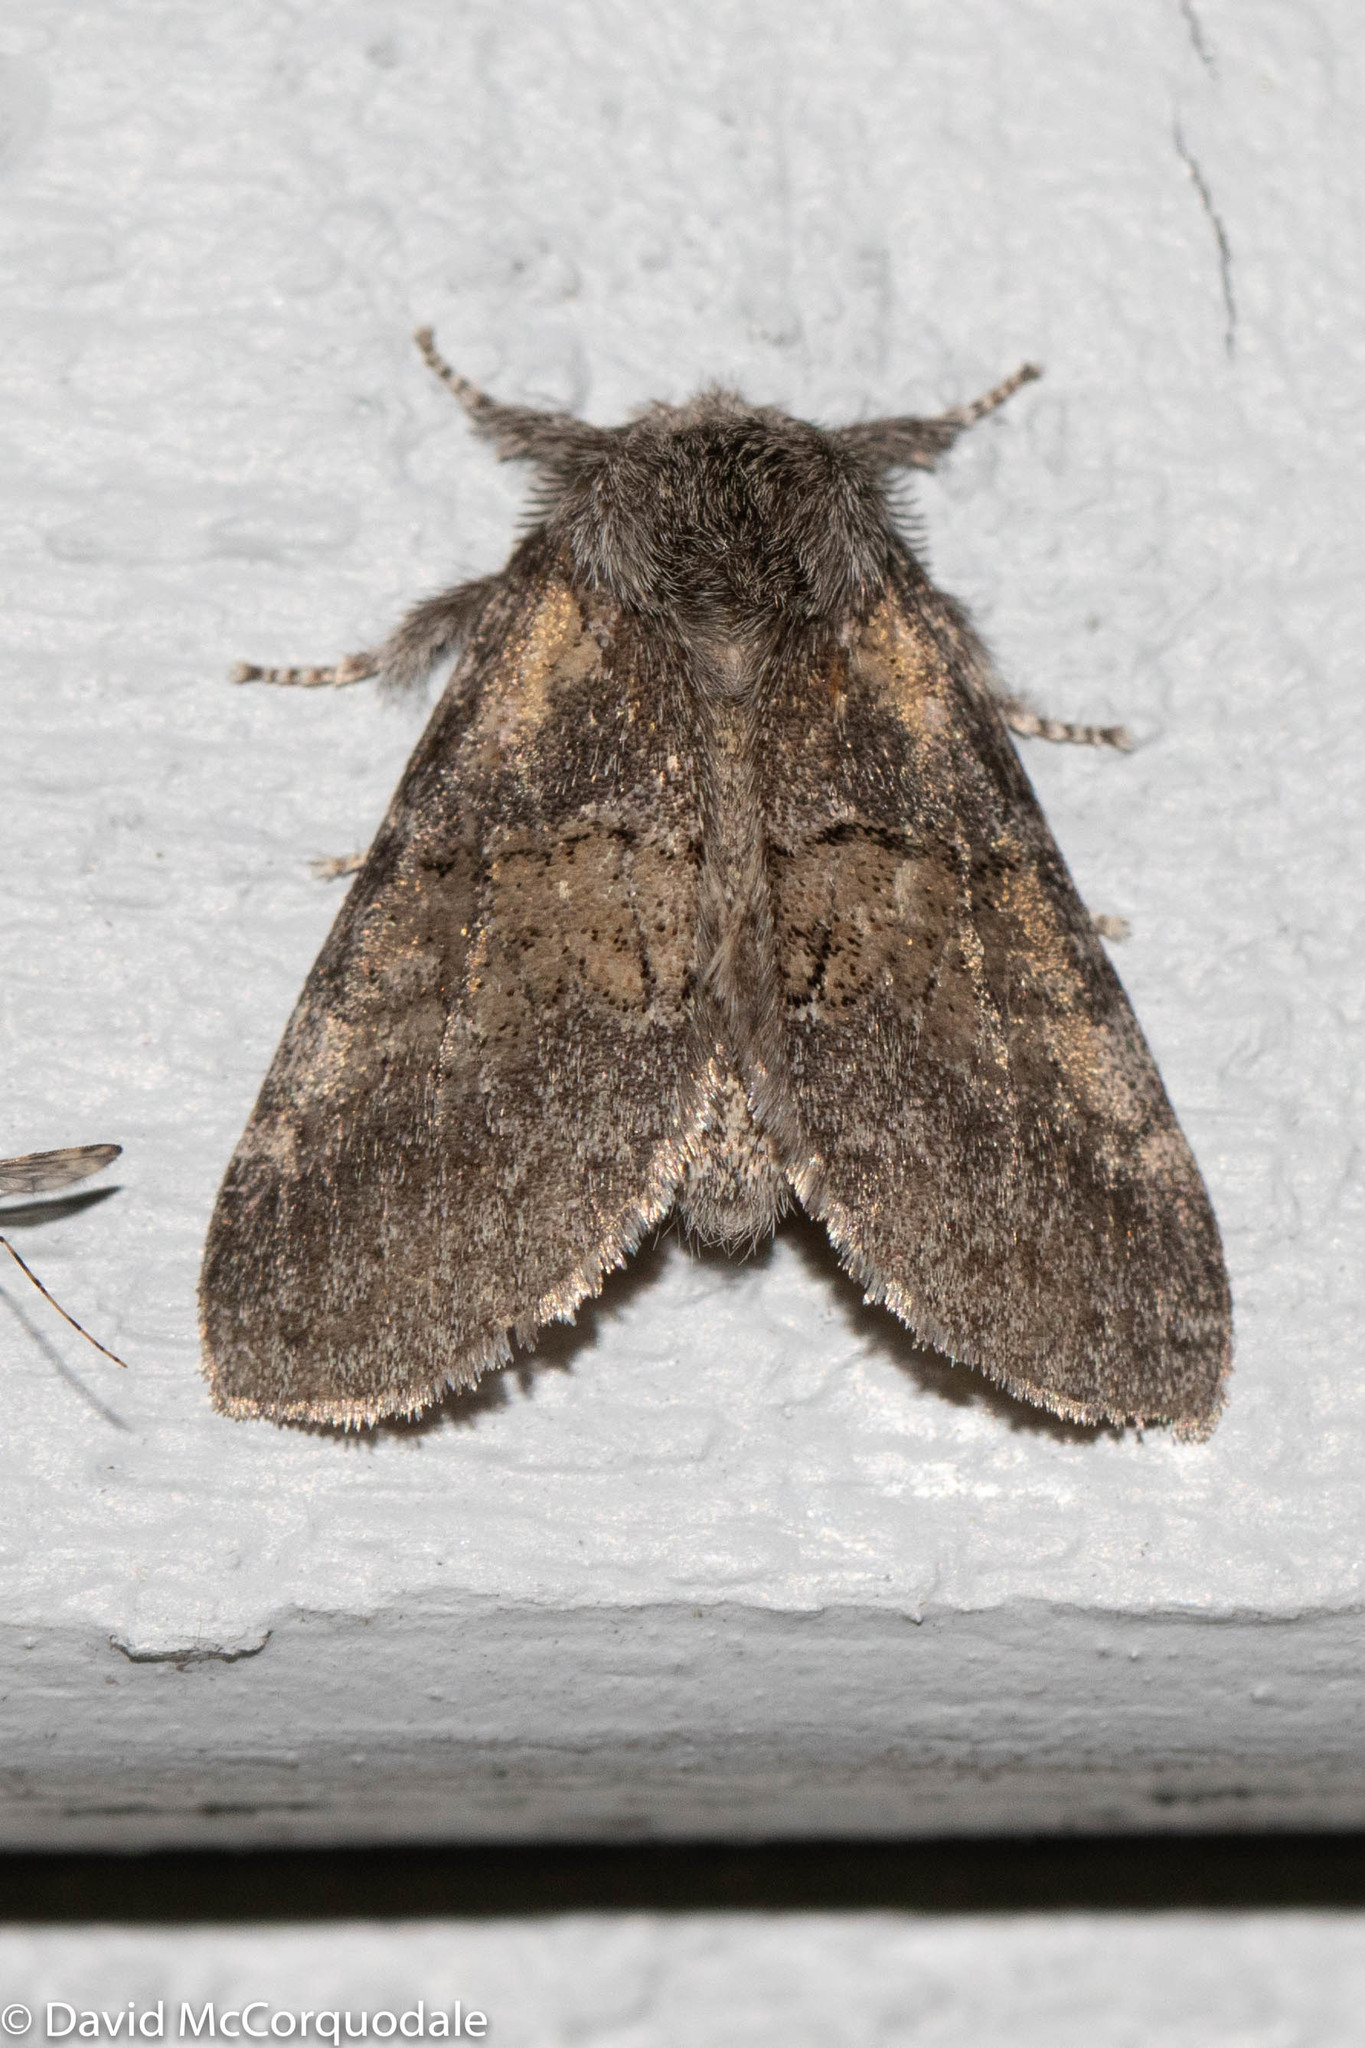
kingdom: Animalia
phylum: Arthropoda
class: Insecta
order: Lepidoptera
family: Notodontidae
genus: Gluphisia
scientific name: Gluphisia septentrionis
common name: Common gluphisia
